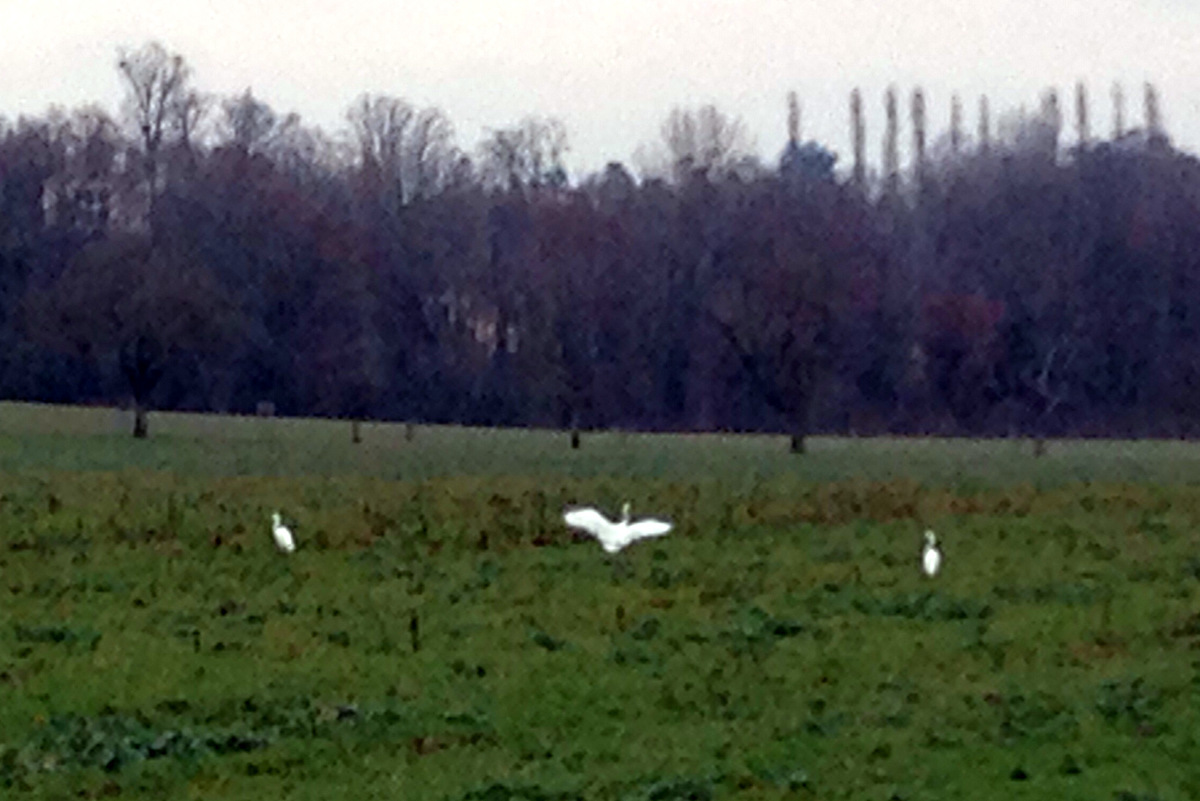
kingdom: Animalia
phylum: Chordata
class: Aves
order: Pelecaniformes
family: Ardeidae
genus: Ardea
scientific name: Ardea alba
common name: Great egret
